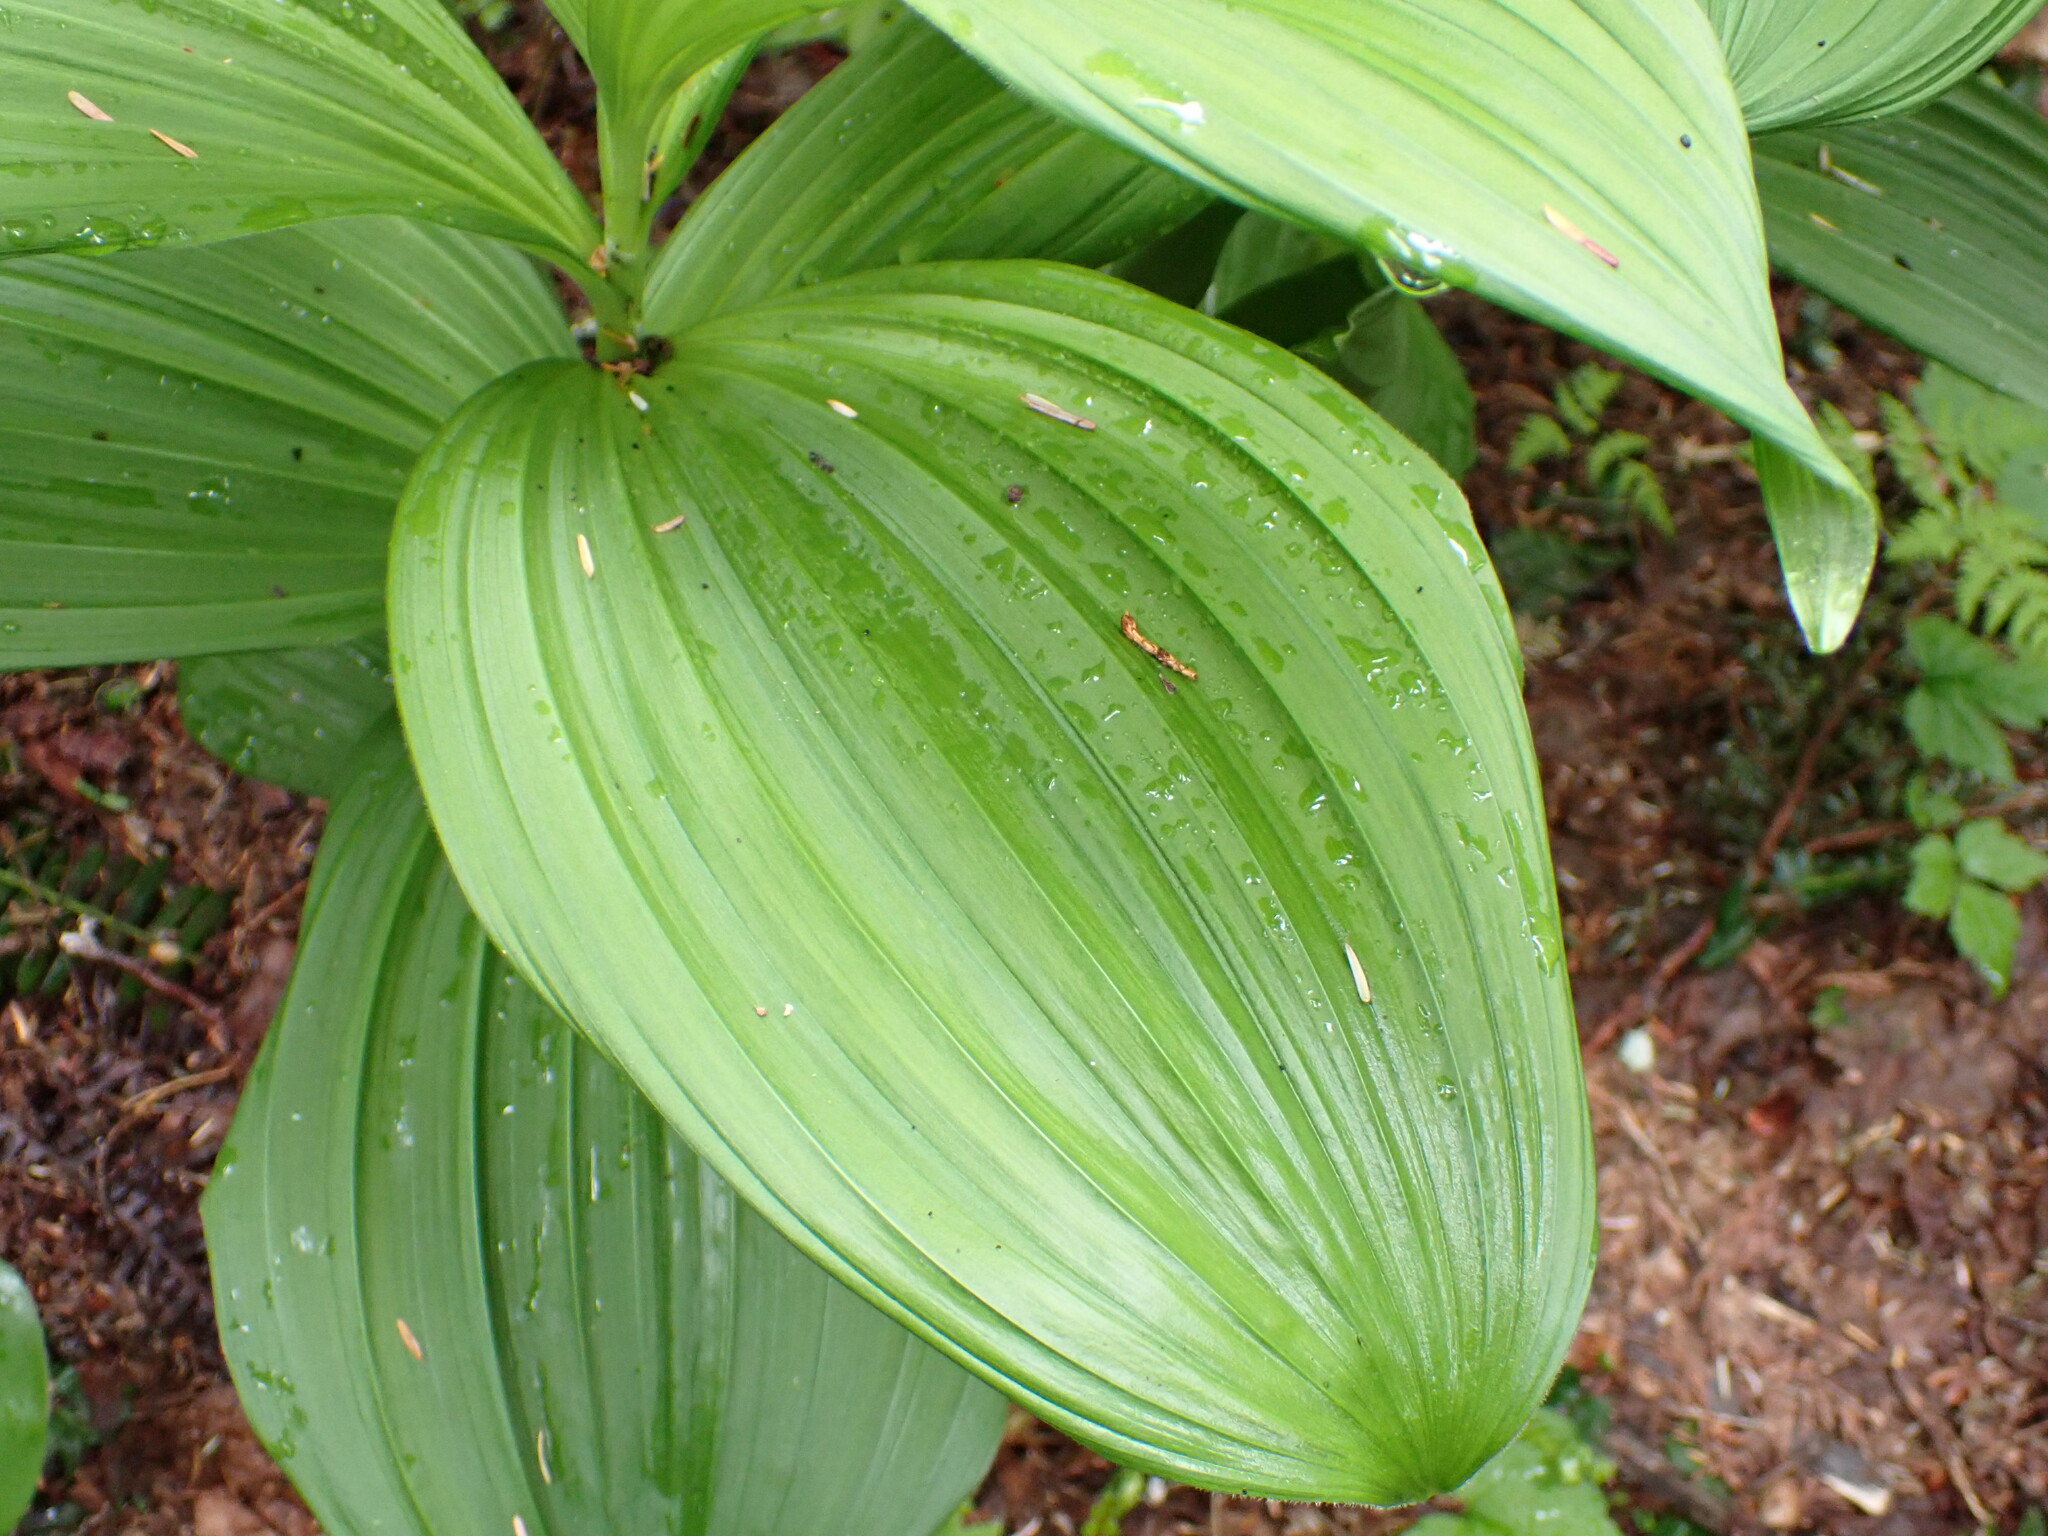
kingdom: Plantae
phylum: Tracheophyta
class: Liliopsida
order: Liliales
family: Melanthiaceae
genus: Veratrum
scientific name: Veratrum viride
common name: American false hellebore
